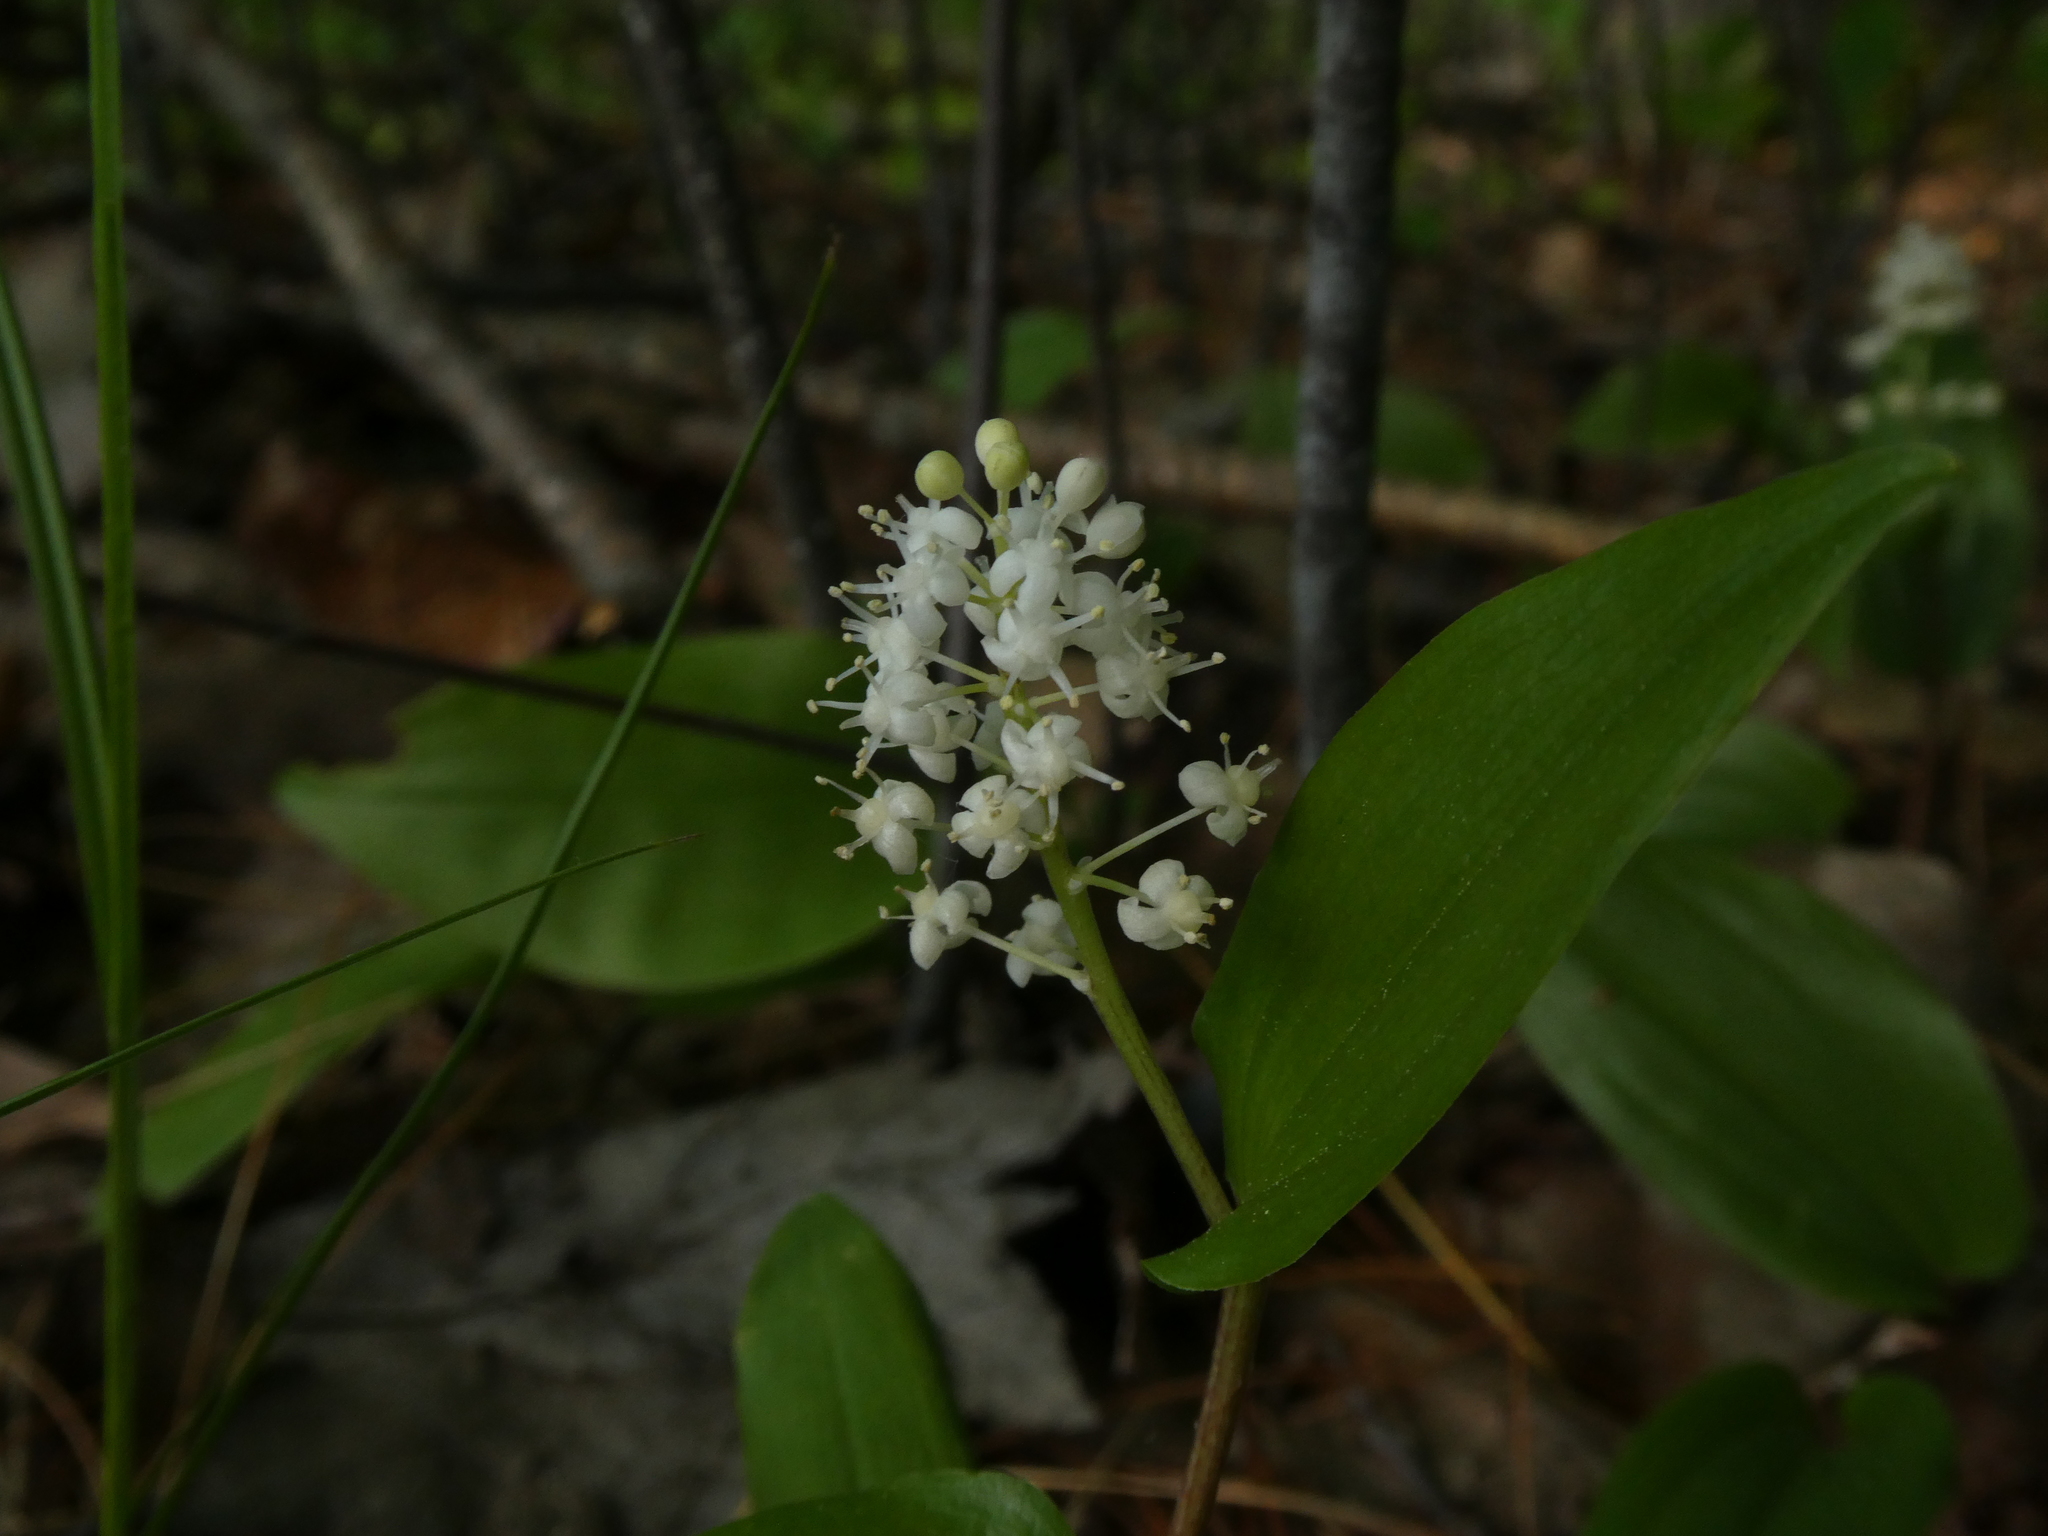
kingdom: Plantae
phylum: Tracheophyta
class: Liliopsida
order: Asparagales
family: Asparagaceae
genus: Maianthemum
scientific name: Maianthemum canadense
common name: False lily-of-the-valley
